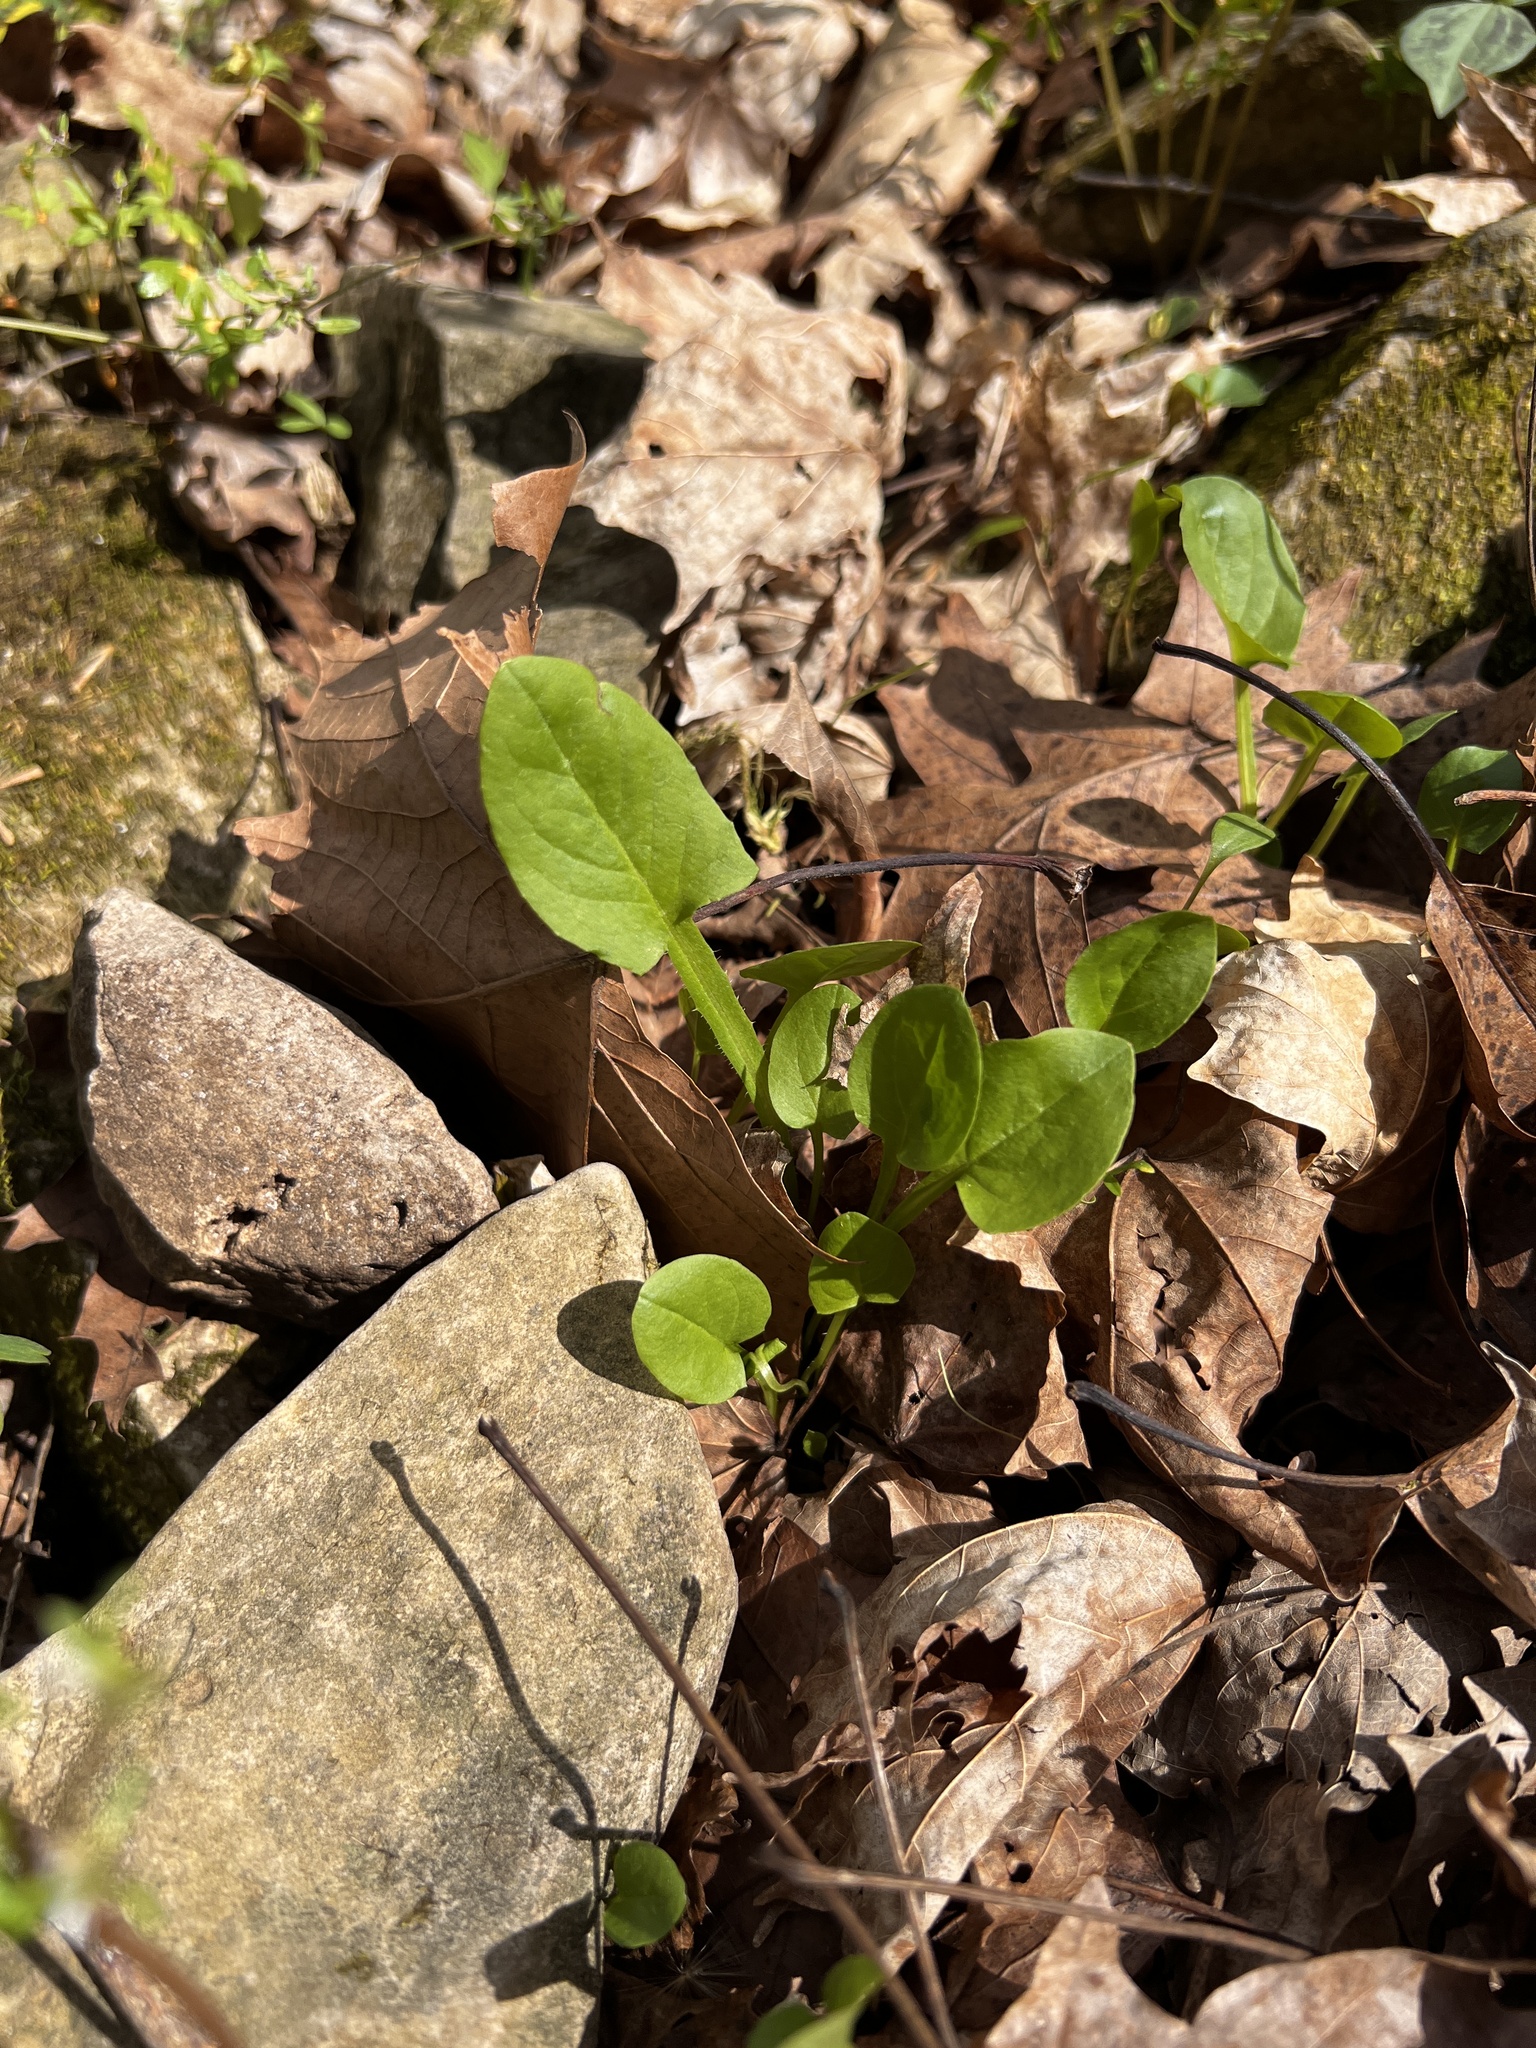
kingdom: Plantae
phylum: Tracheophyta
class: Magnoliopsida
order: Asterales
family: Asteraceae
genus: Nabalus
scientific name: Nabalus crepidineus
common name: Nodding rattlesnakeroot
